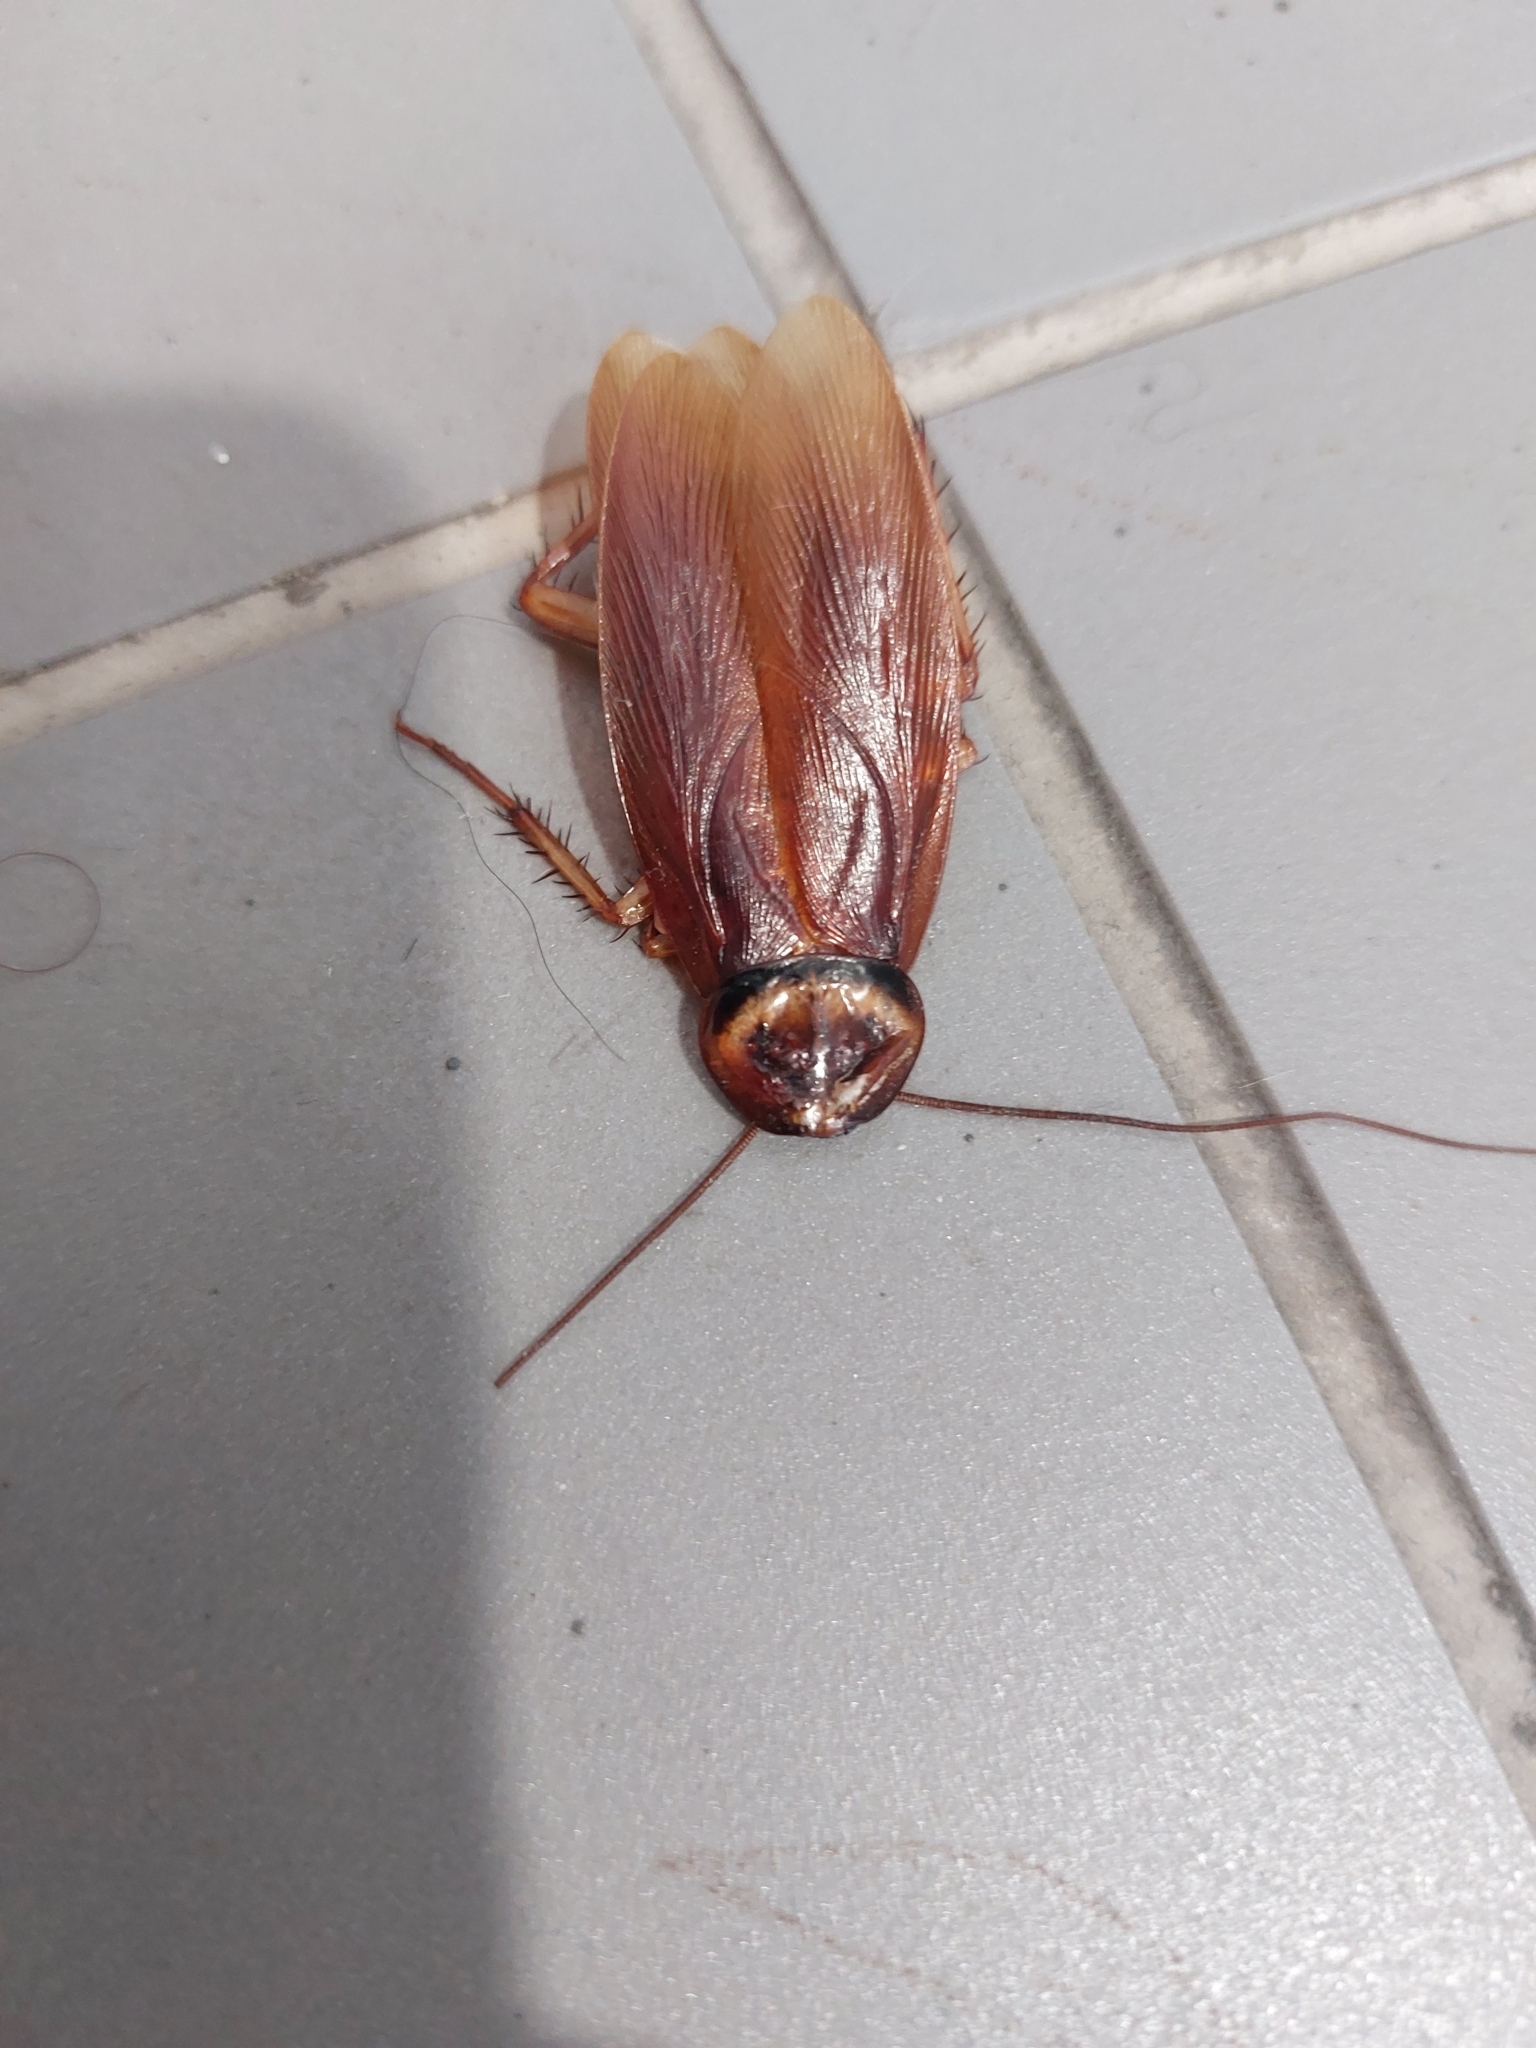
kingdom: Animalia
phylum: Arthropoda
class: Insecta
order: Blattodea
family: Blattidae
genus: Periplaneta
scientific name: Periplaneta americana
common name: American cockroach
